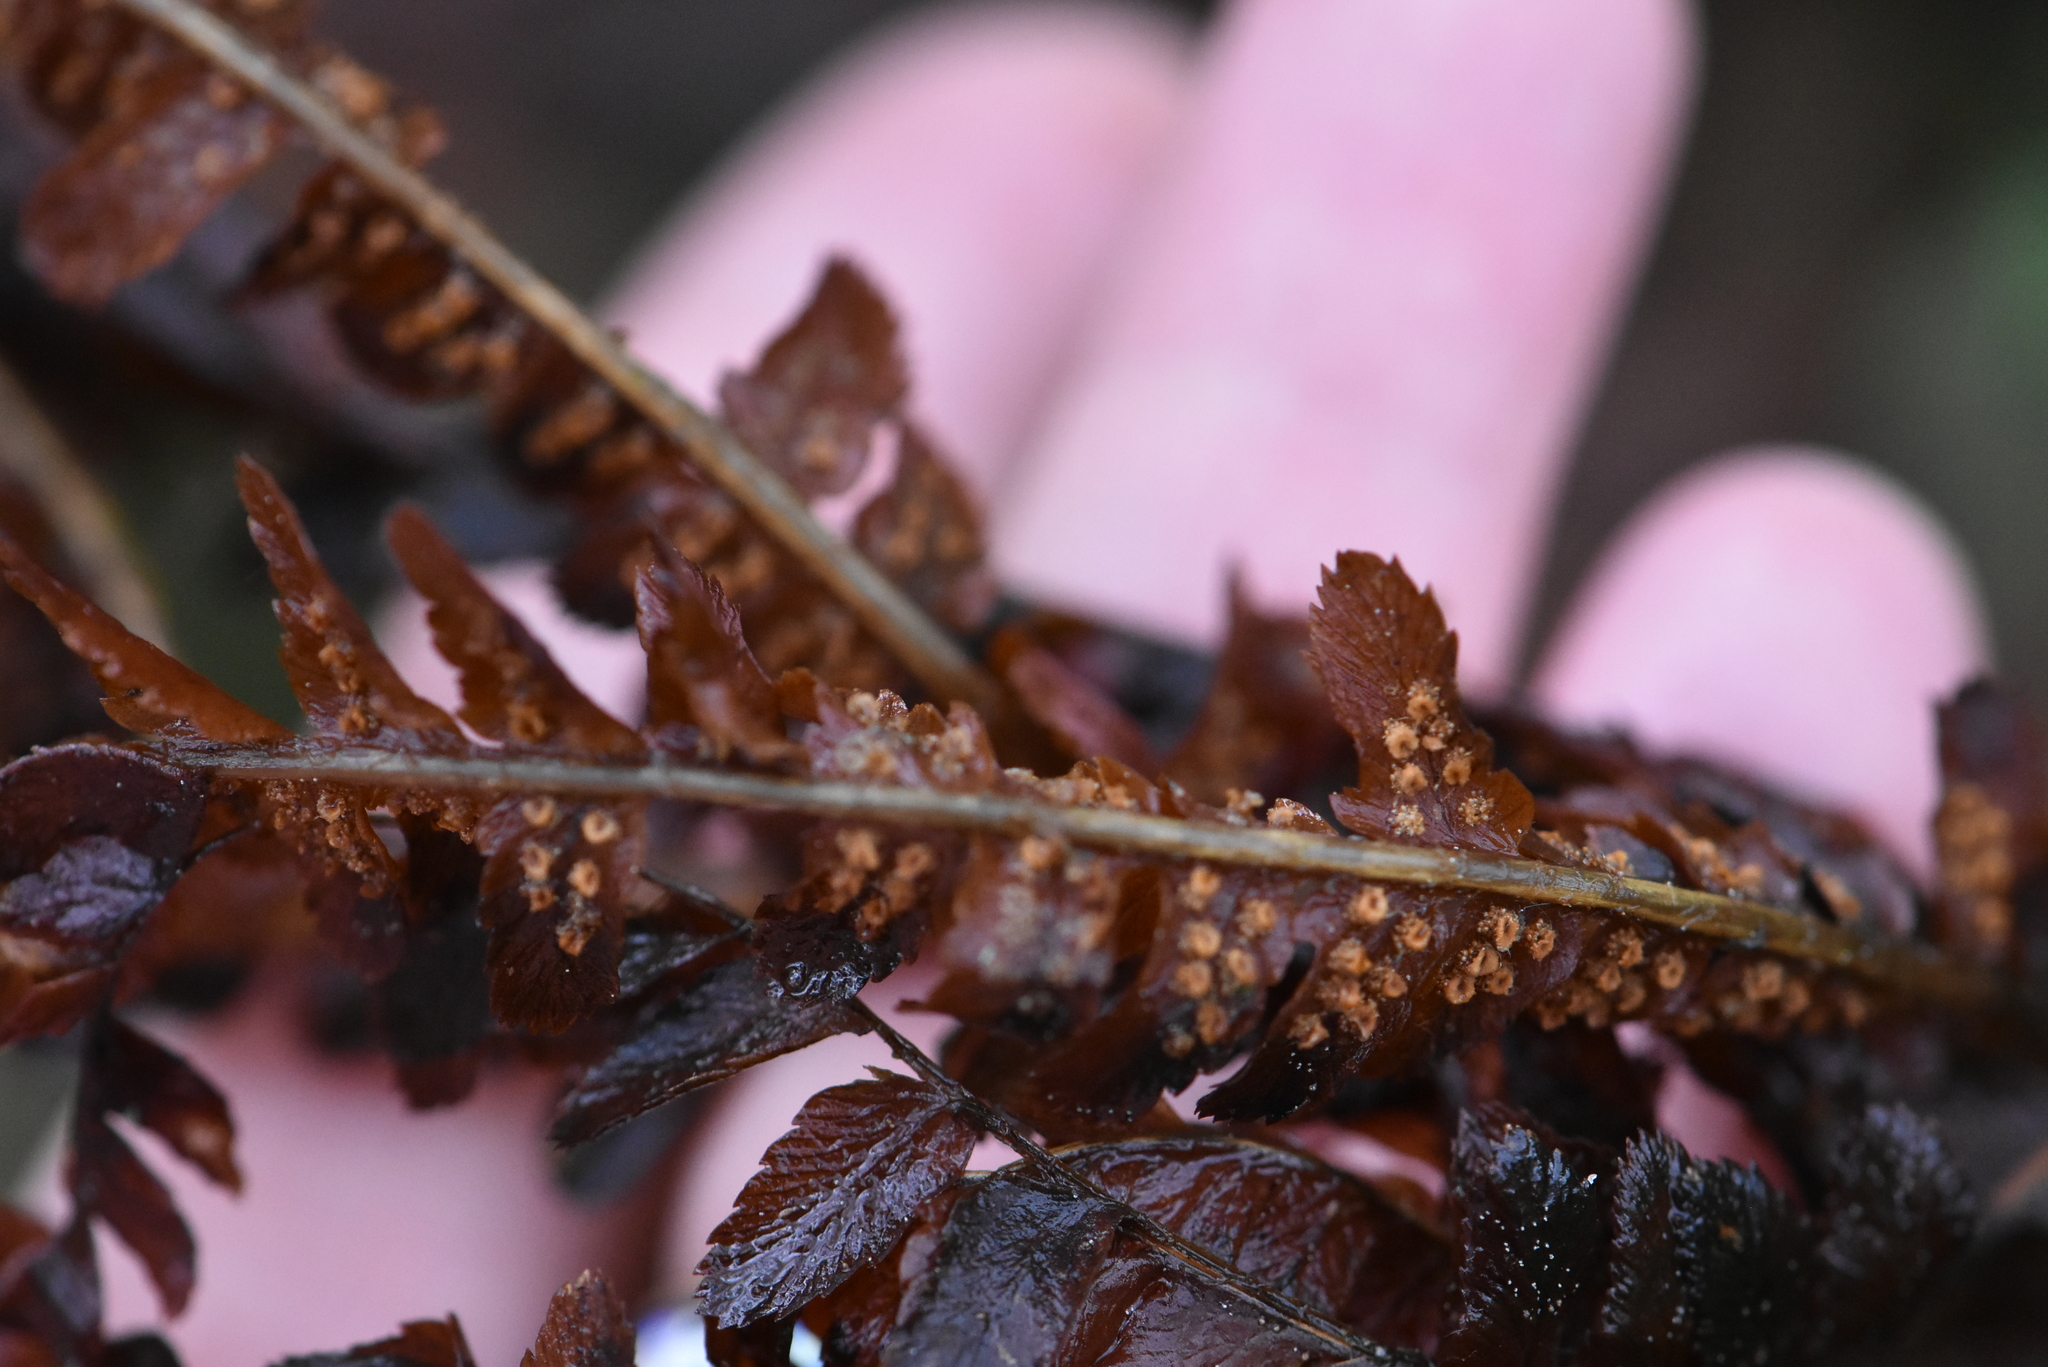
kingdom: Plantae
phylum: Tracheophyta
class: Polypodiopsida
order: Polypodiales
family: Dryopteridaceae
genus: Dryopteris
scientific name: Dryopteris filix-mas
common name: Male fern
